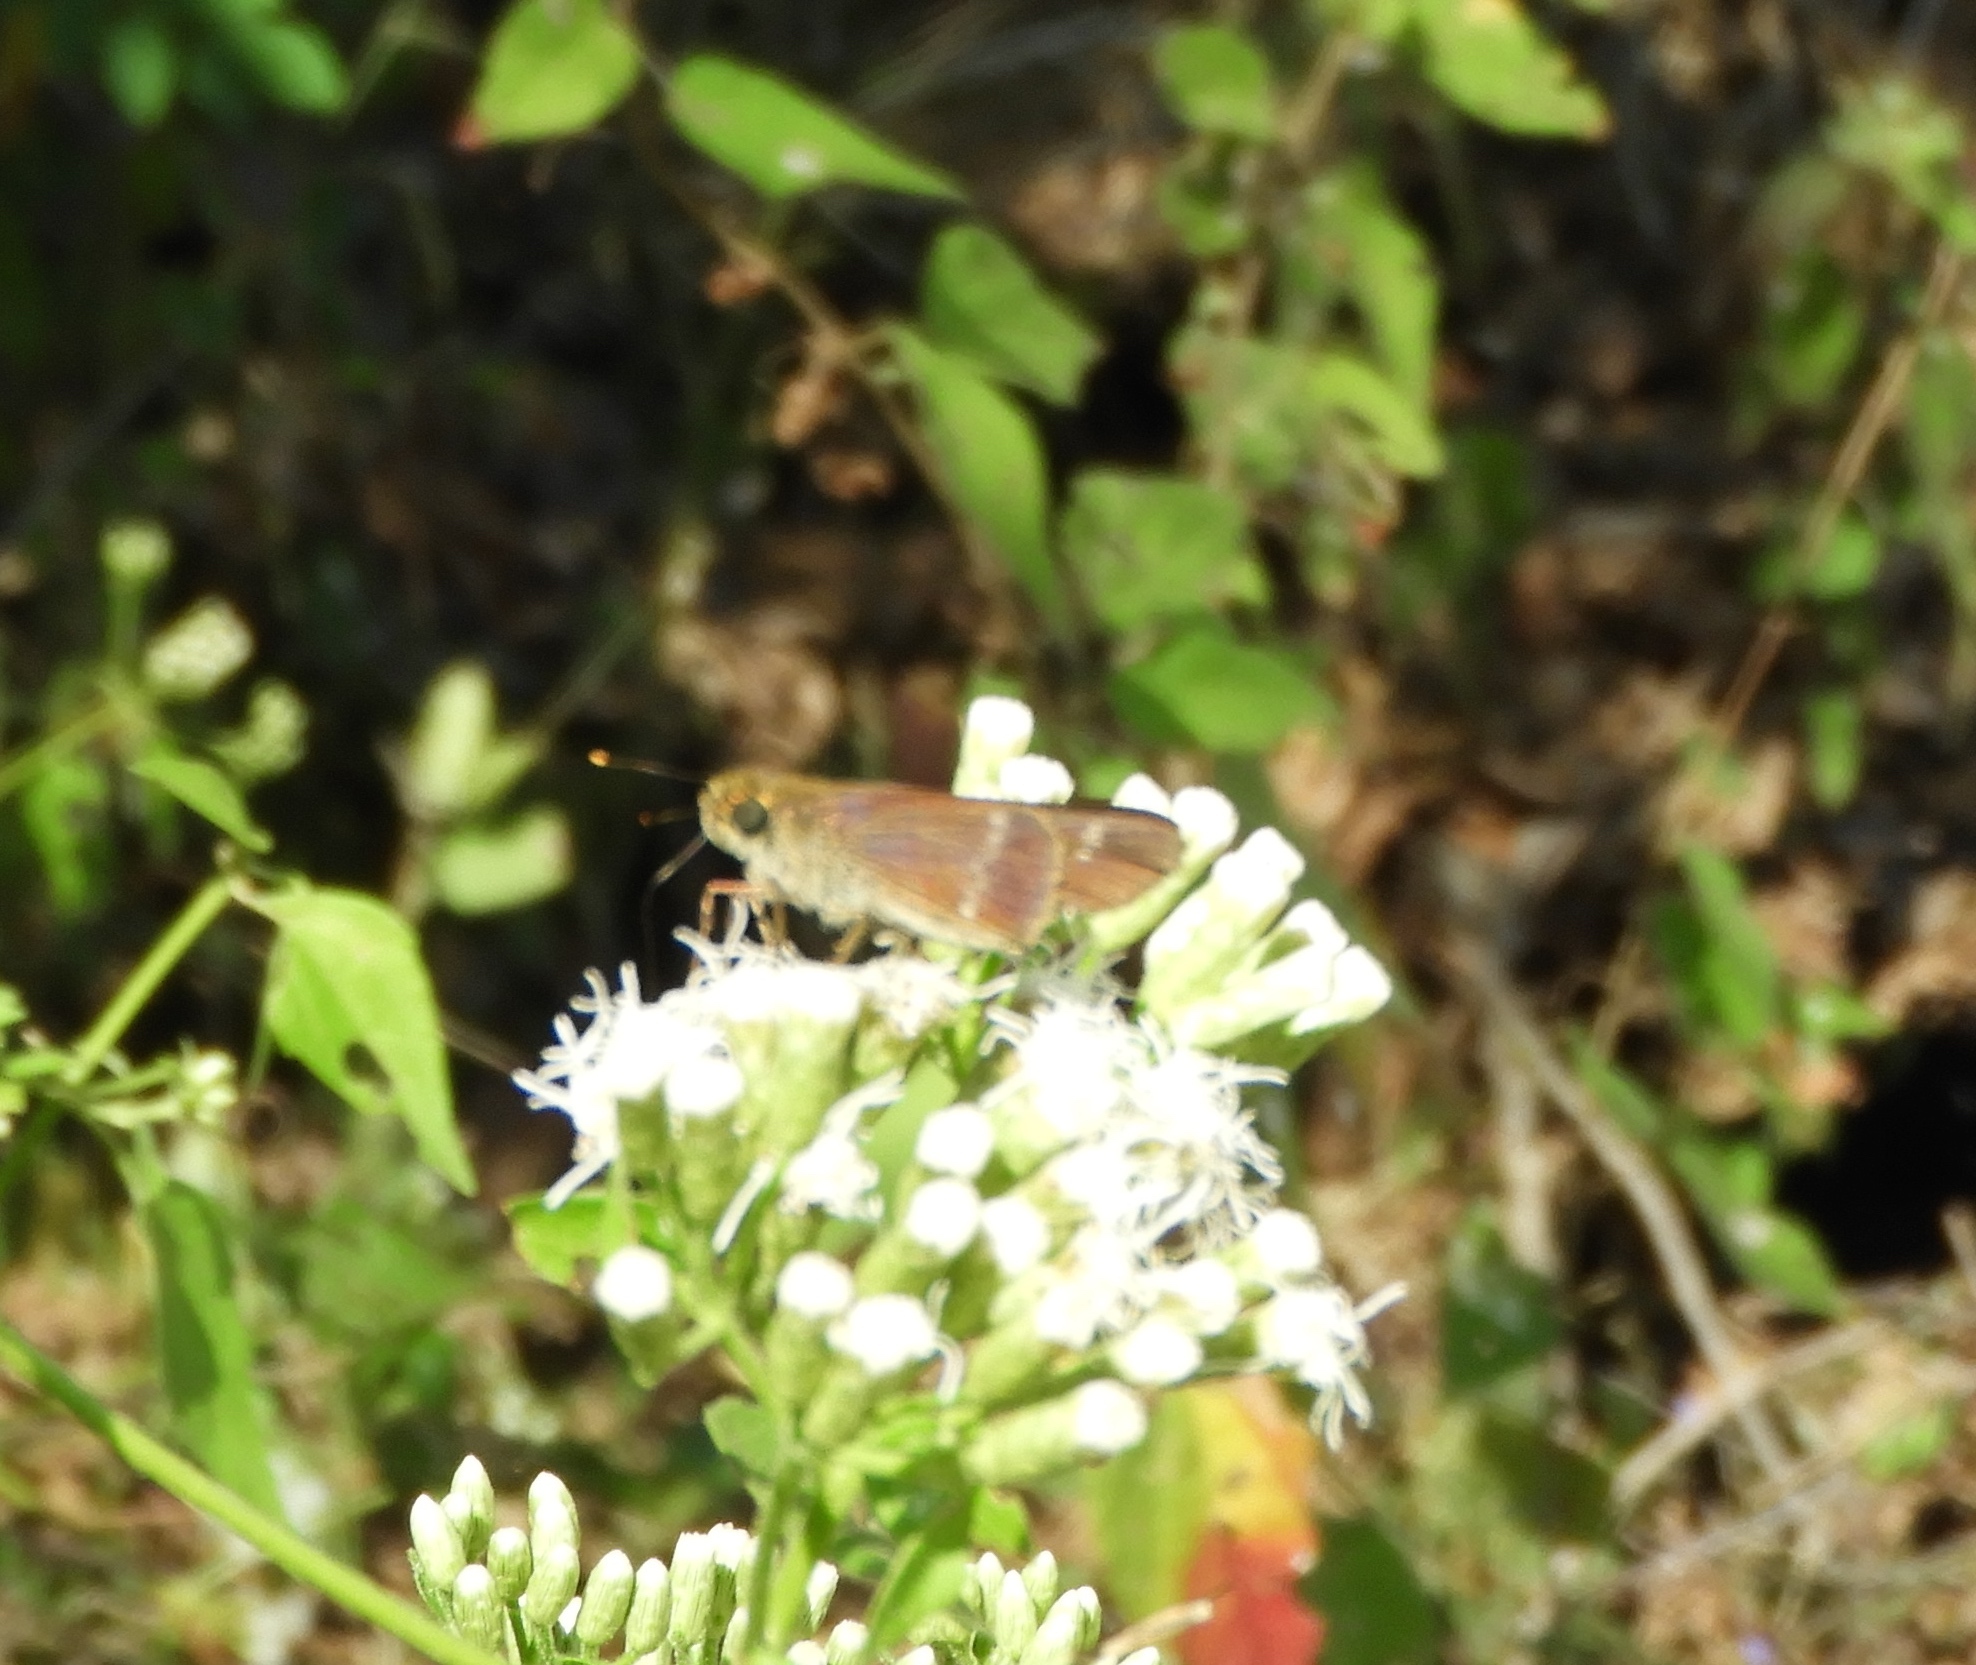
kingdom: Animalia
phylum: Arthropoda
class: Insecta
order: Lepidoptera
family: Hesperiidae
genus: Turesis
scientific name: Turesis lucas
